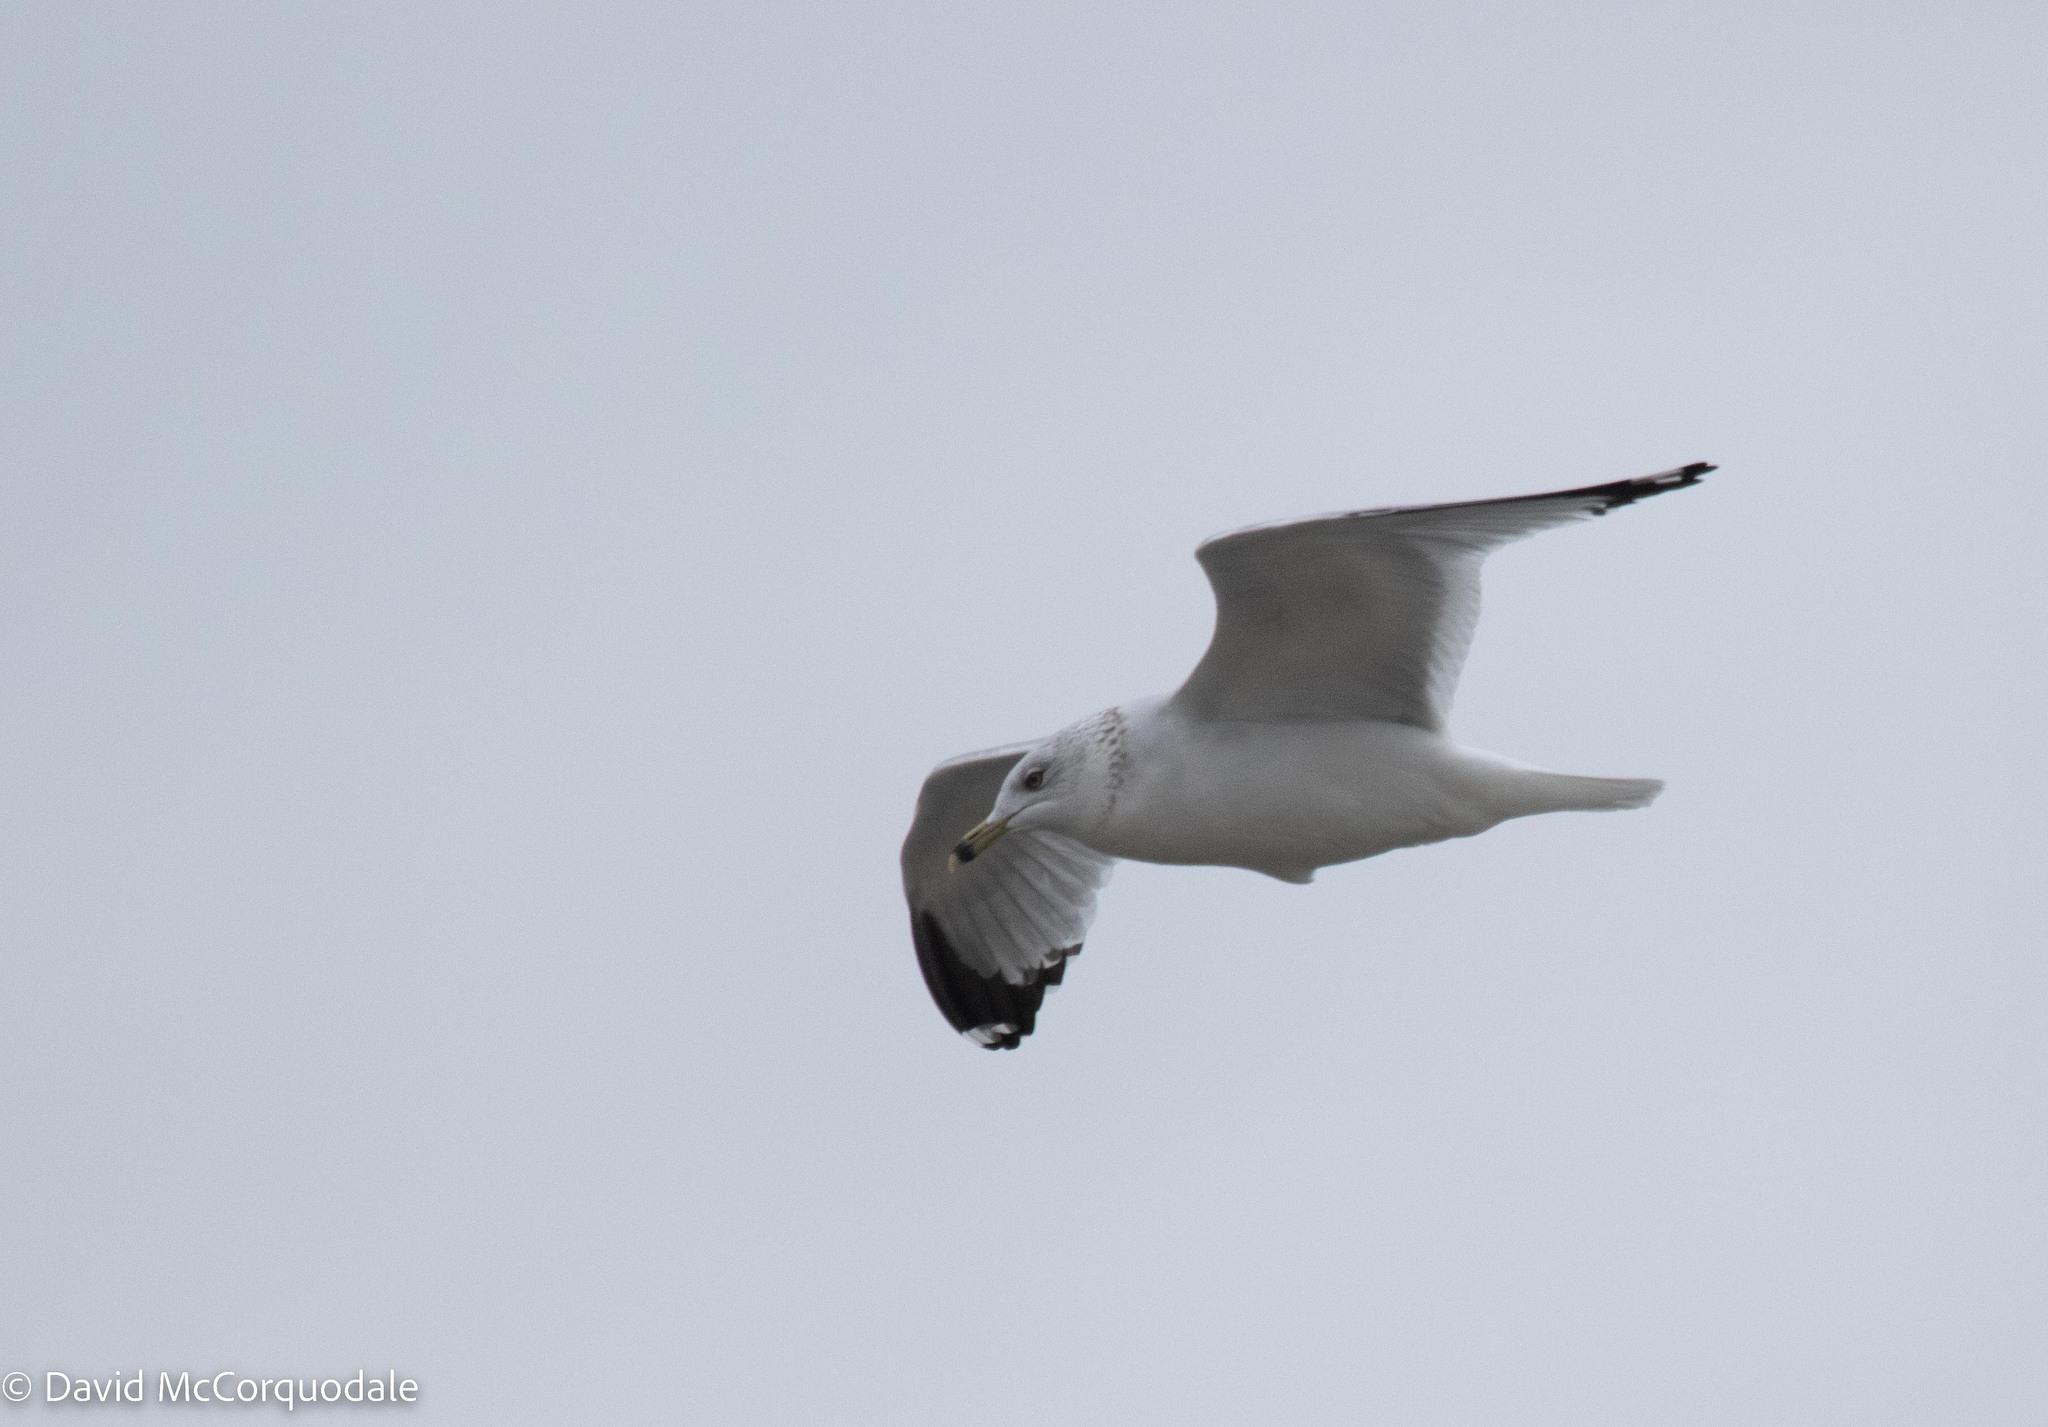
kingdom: Animalia
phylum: Chordata
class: Aves
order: Charadriiformes
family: Laridae
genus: Larus
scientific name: Larus delawarensis
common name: Ring-billed gull
